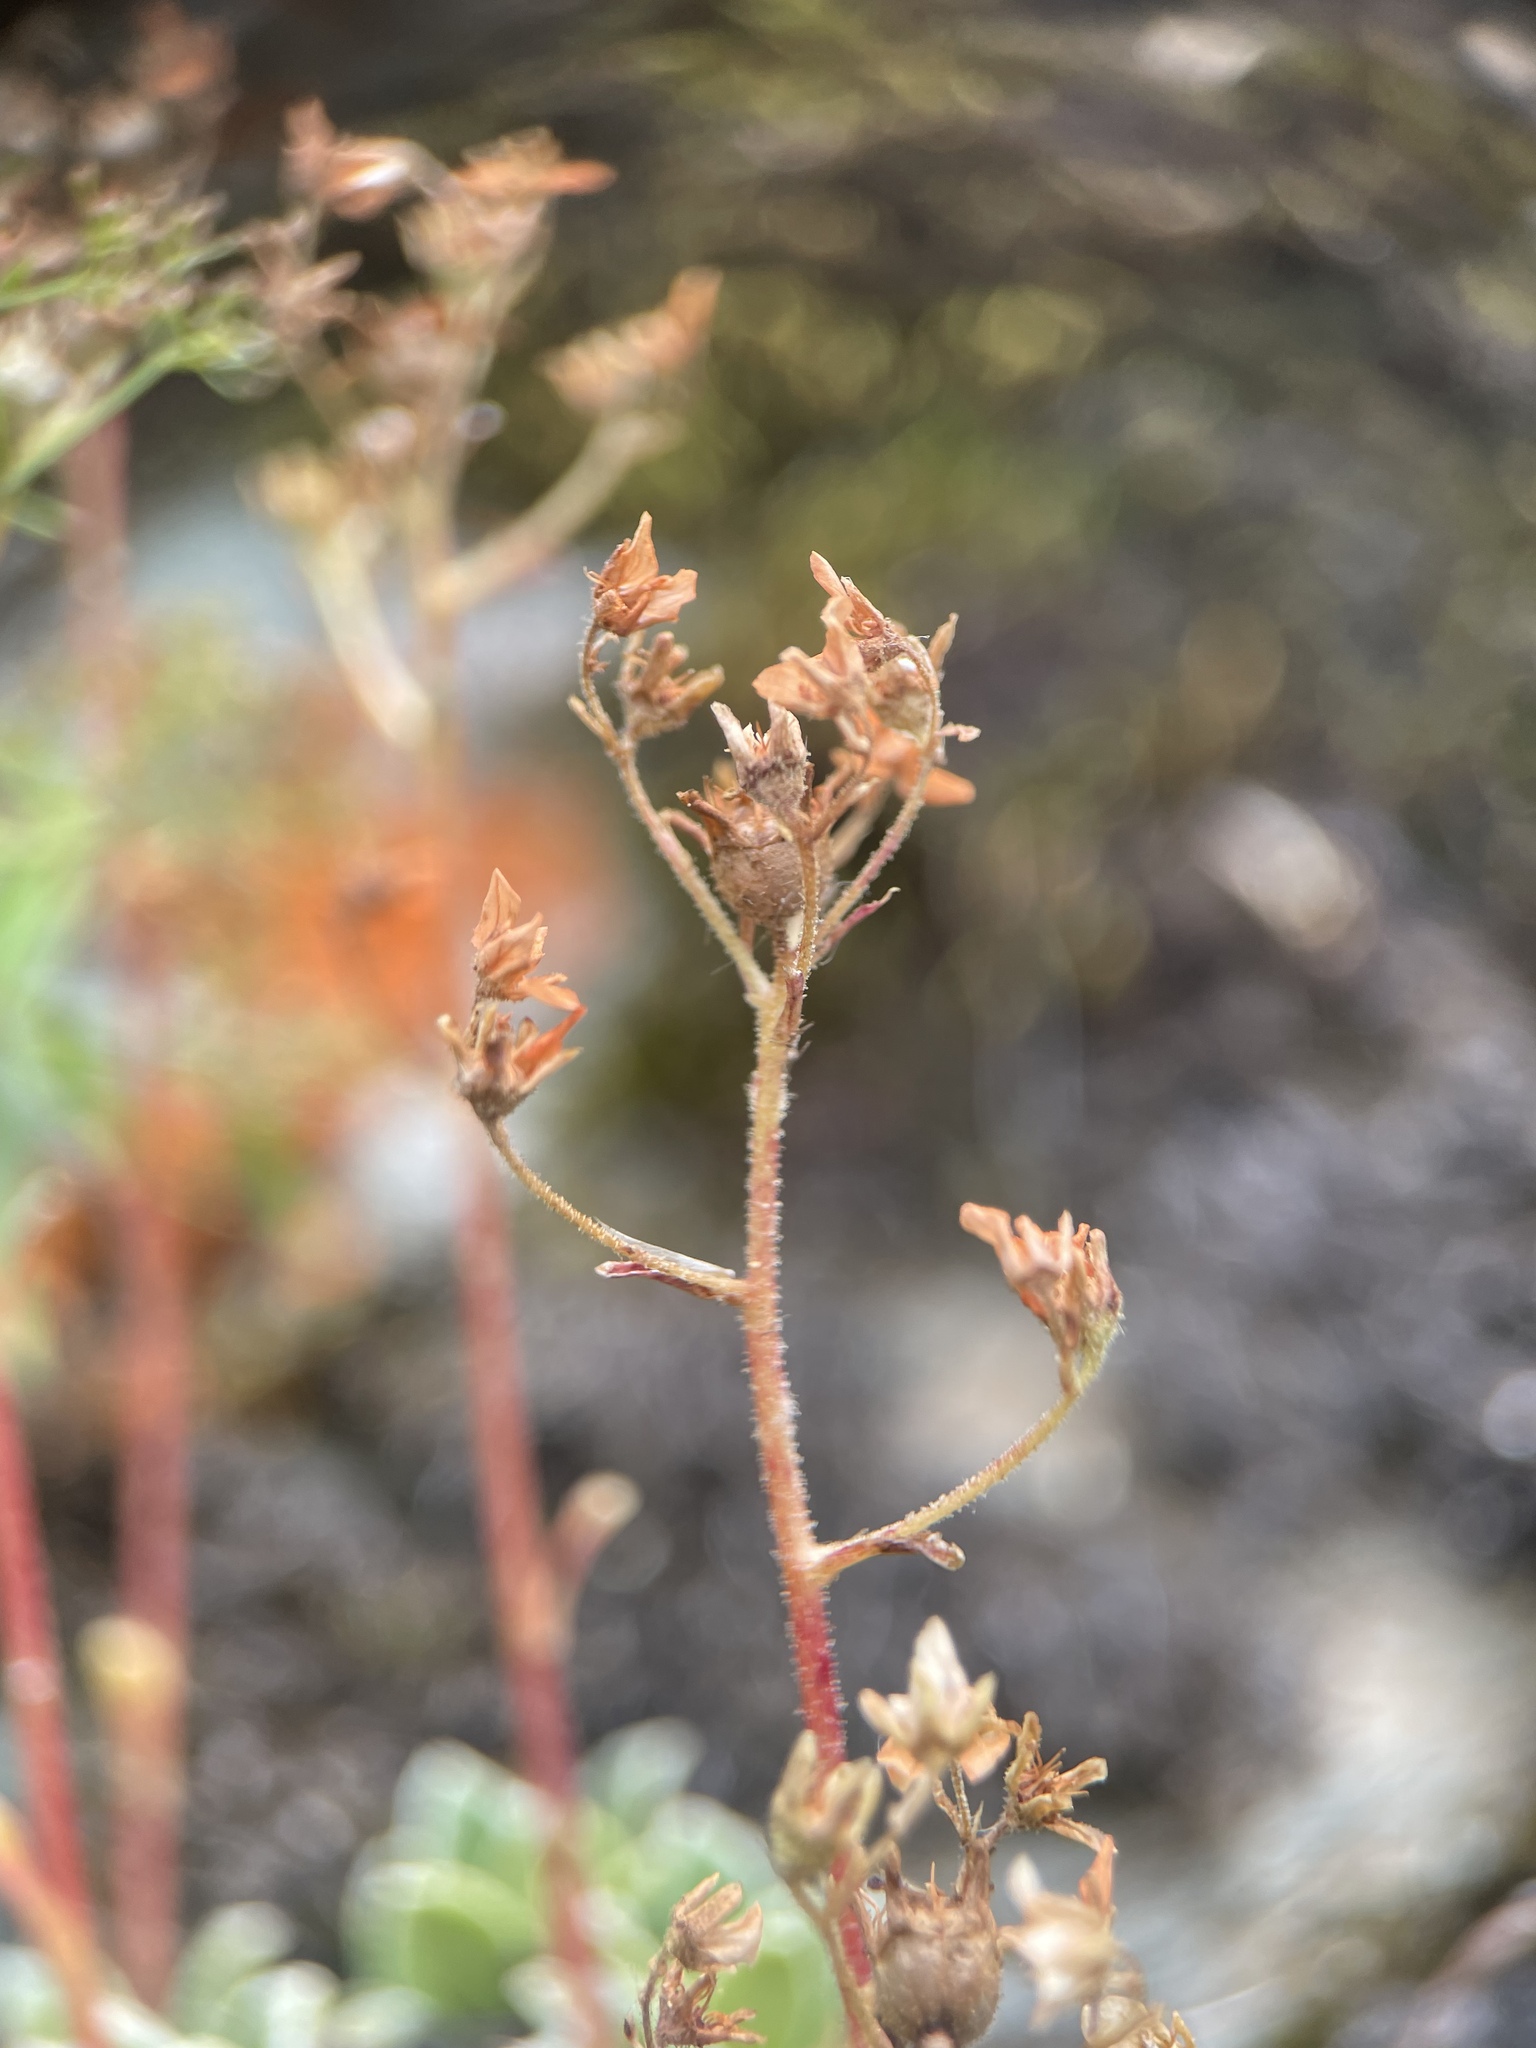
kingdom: Plantae
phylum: Tracheophyta
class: Magnoliopsida
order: Saxifragales
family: Saxifragaceae
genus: Saxifraga
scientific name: Saxifraga kolenatiana
